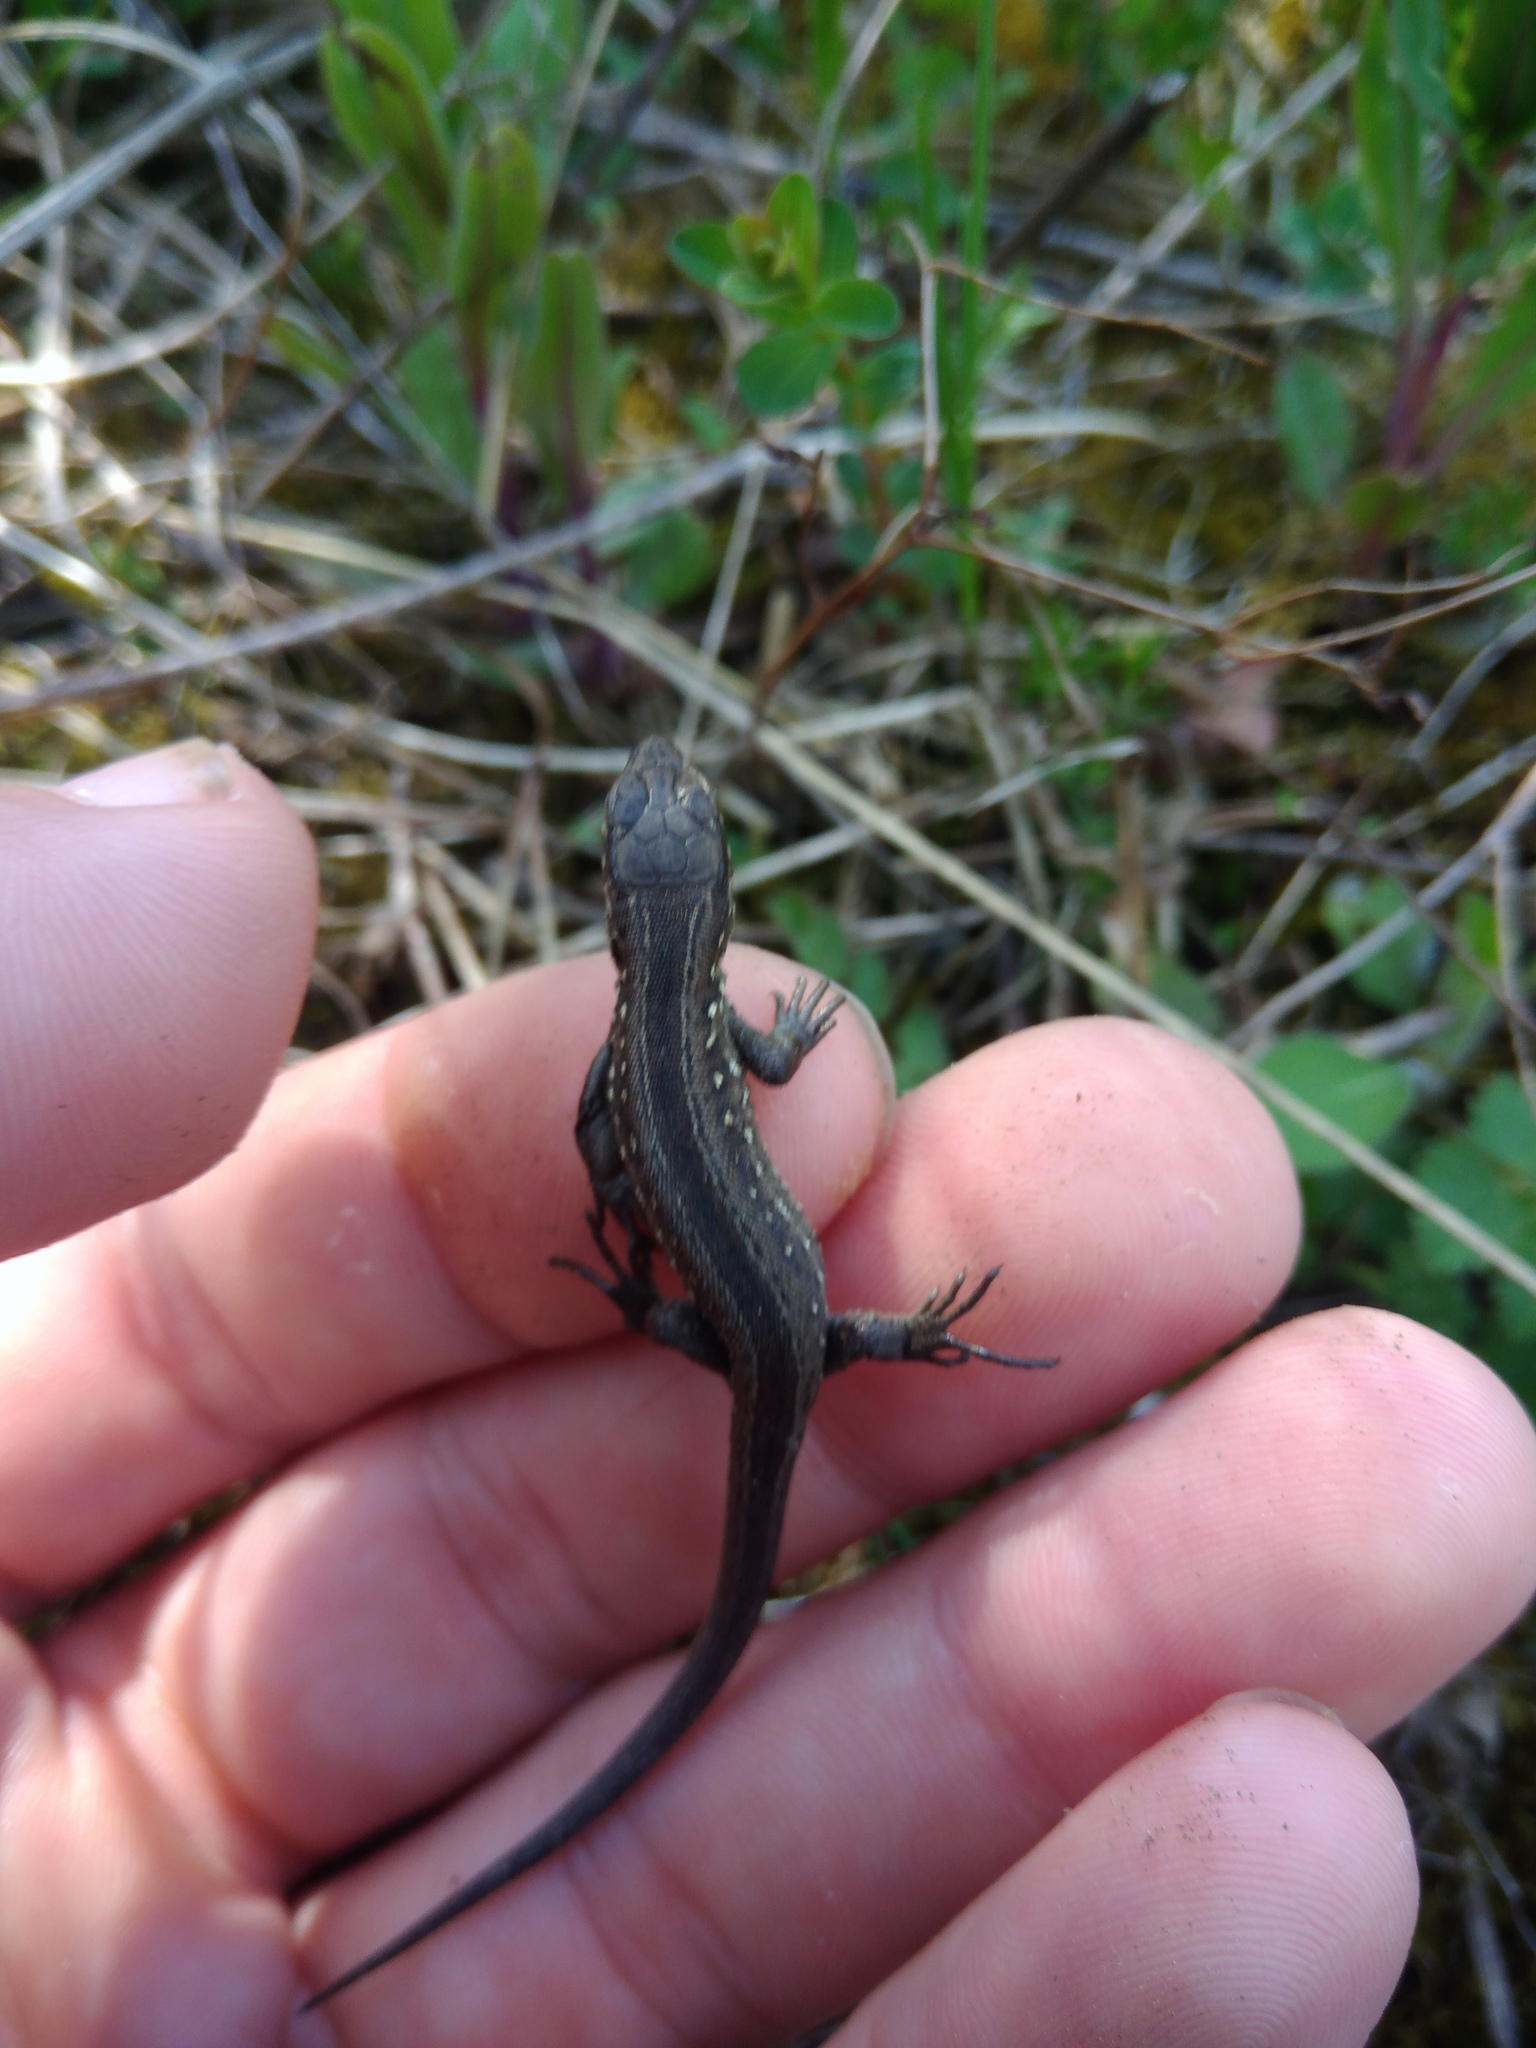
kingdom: Animalia
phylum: Chordata
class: Squamata
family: Lacertidae
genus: Lacerta
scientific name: Lacerta agilis
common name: Sand lizard
